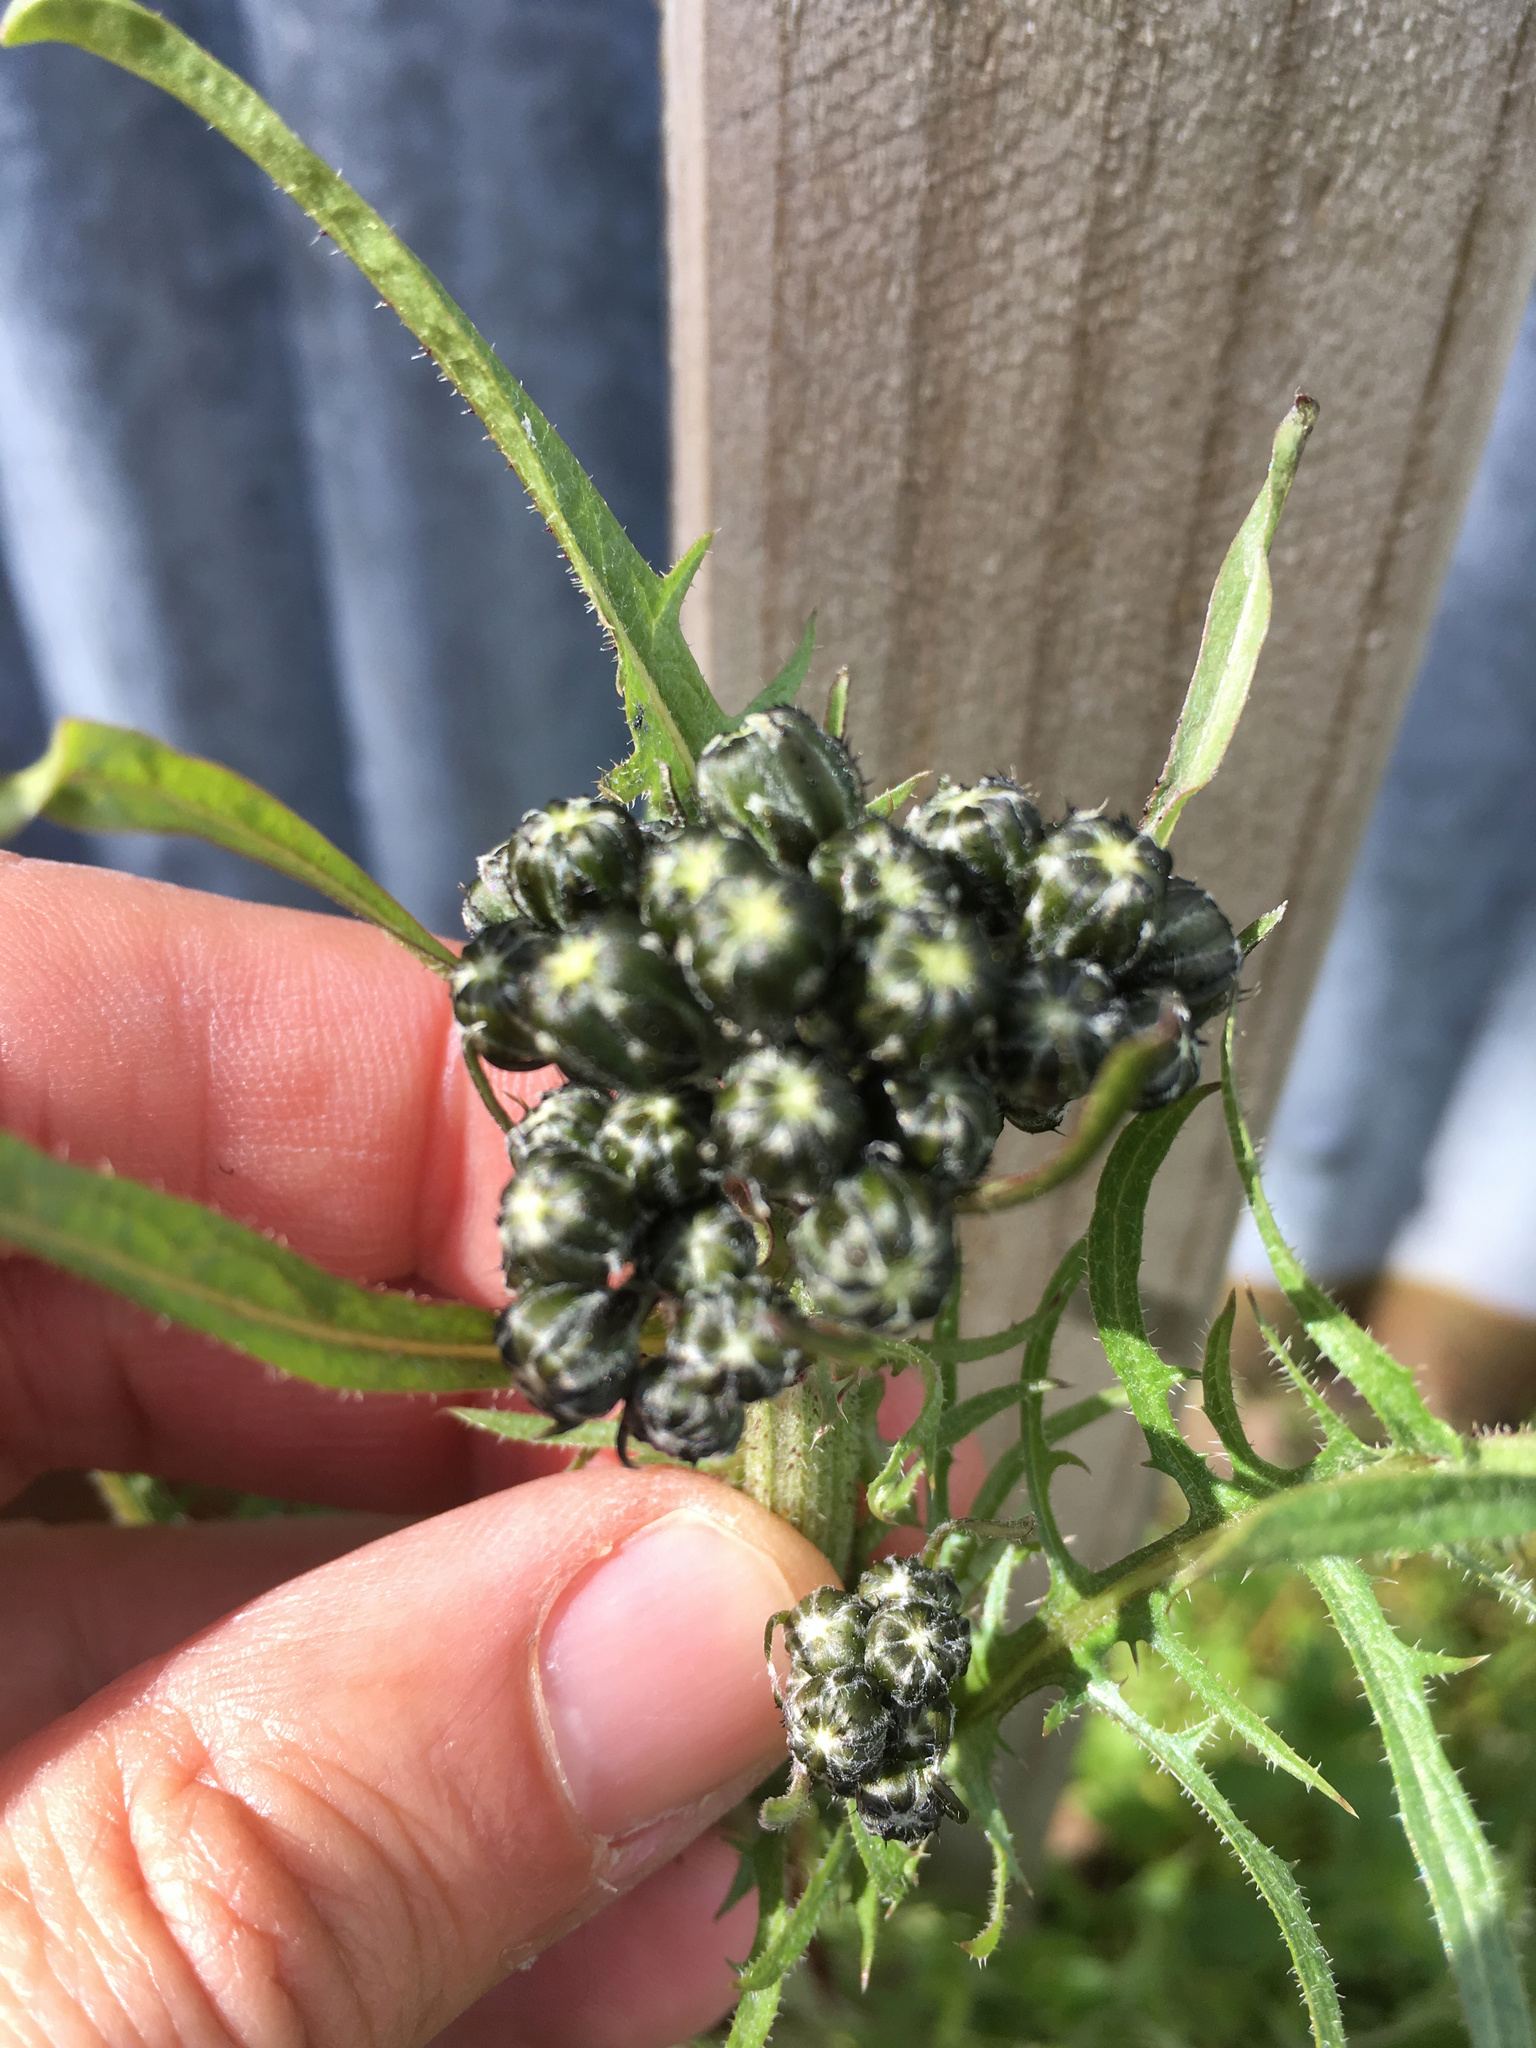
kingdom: Plantae
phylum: Tracheophyta
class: Magnoliopsida
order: Asterales
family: Asteraceae
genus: Crepis
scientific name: Crepis vesicaria
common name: Beaked hawksbeard
